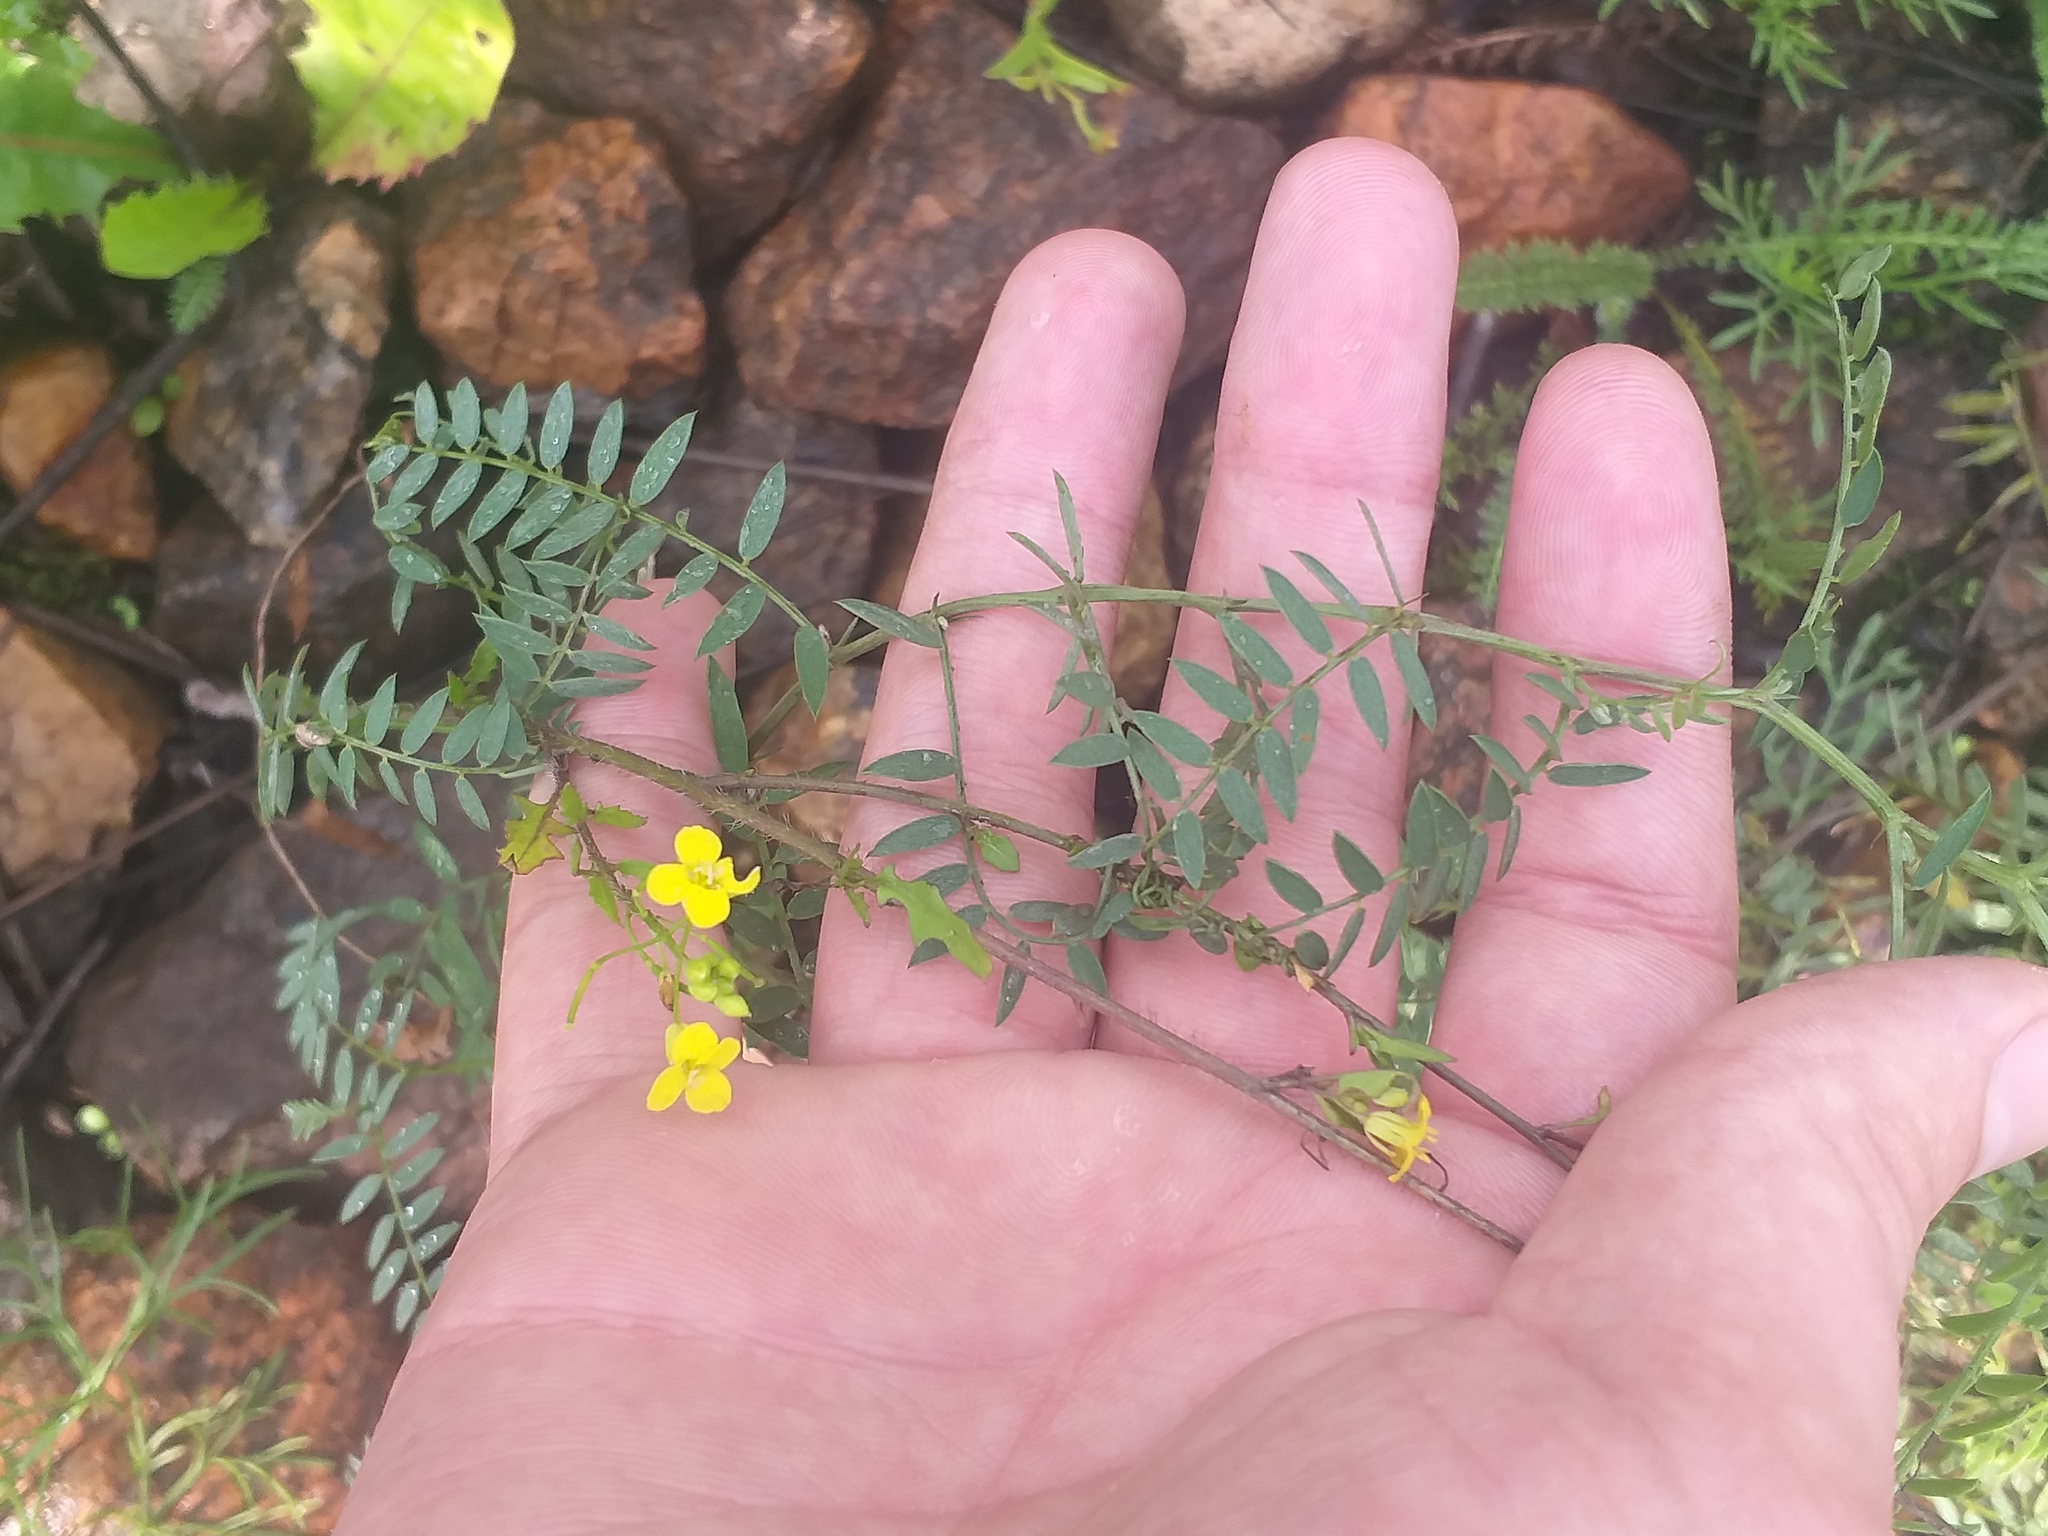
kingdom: Plantae
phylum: Tracheophyta
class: Magnoliopsida
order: Brassicales
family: Brassicaceae
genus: Sisymbrium
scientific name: Sisymbrium loeselii
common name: False london-rocket
